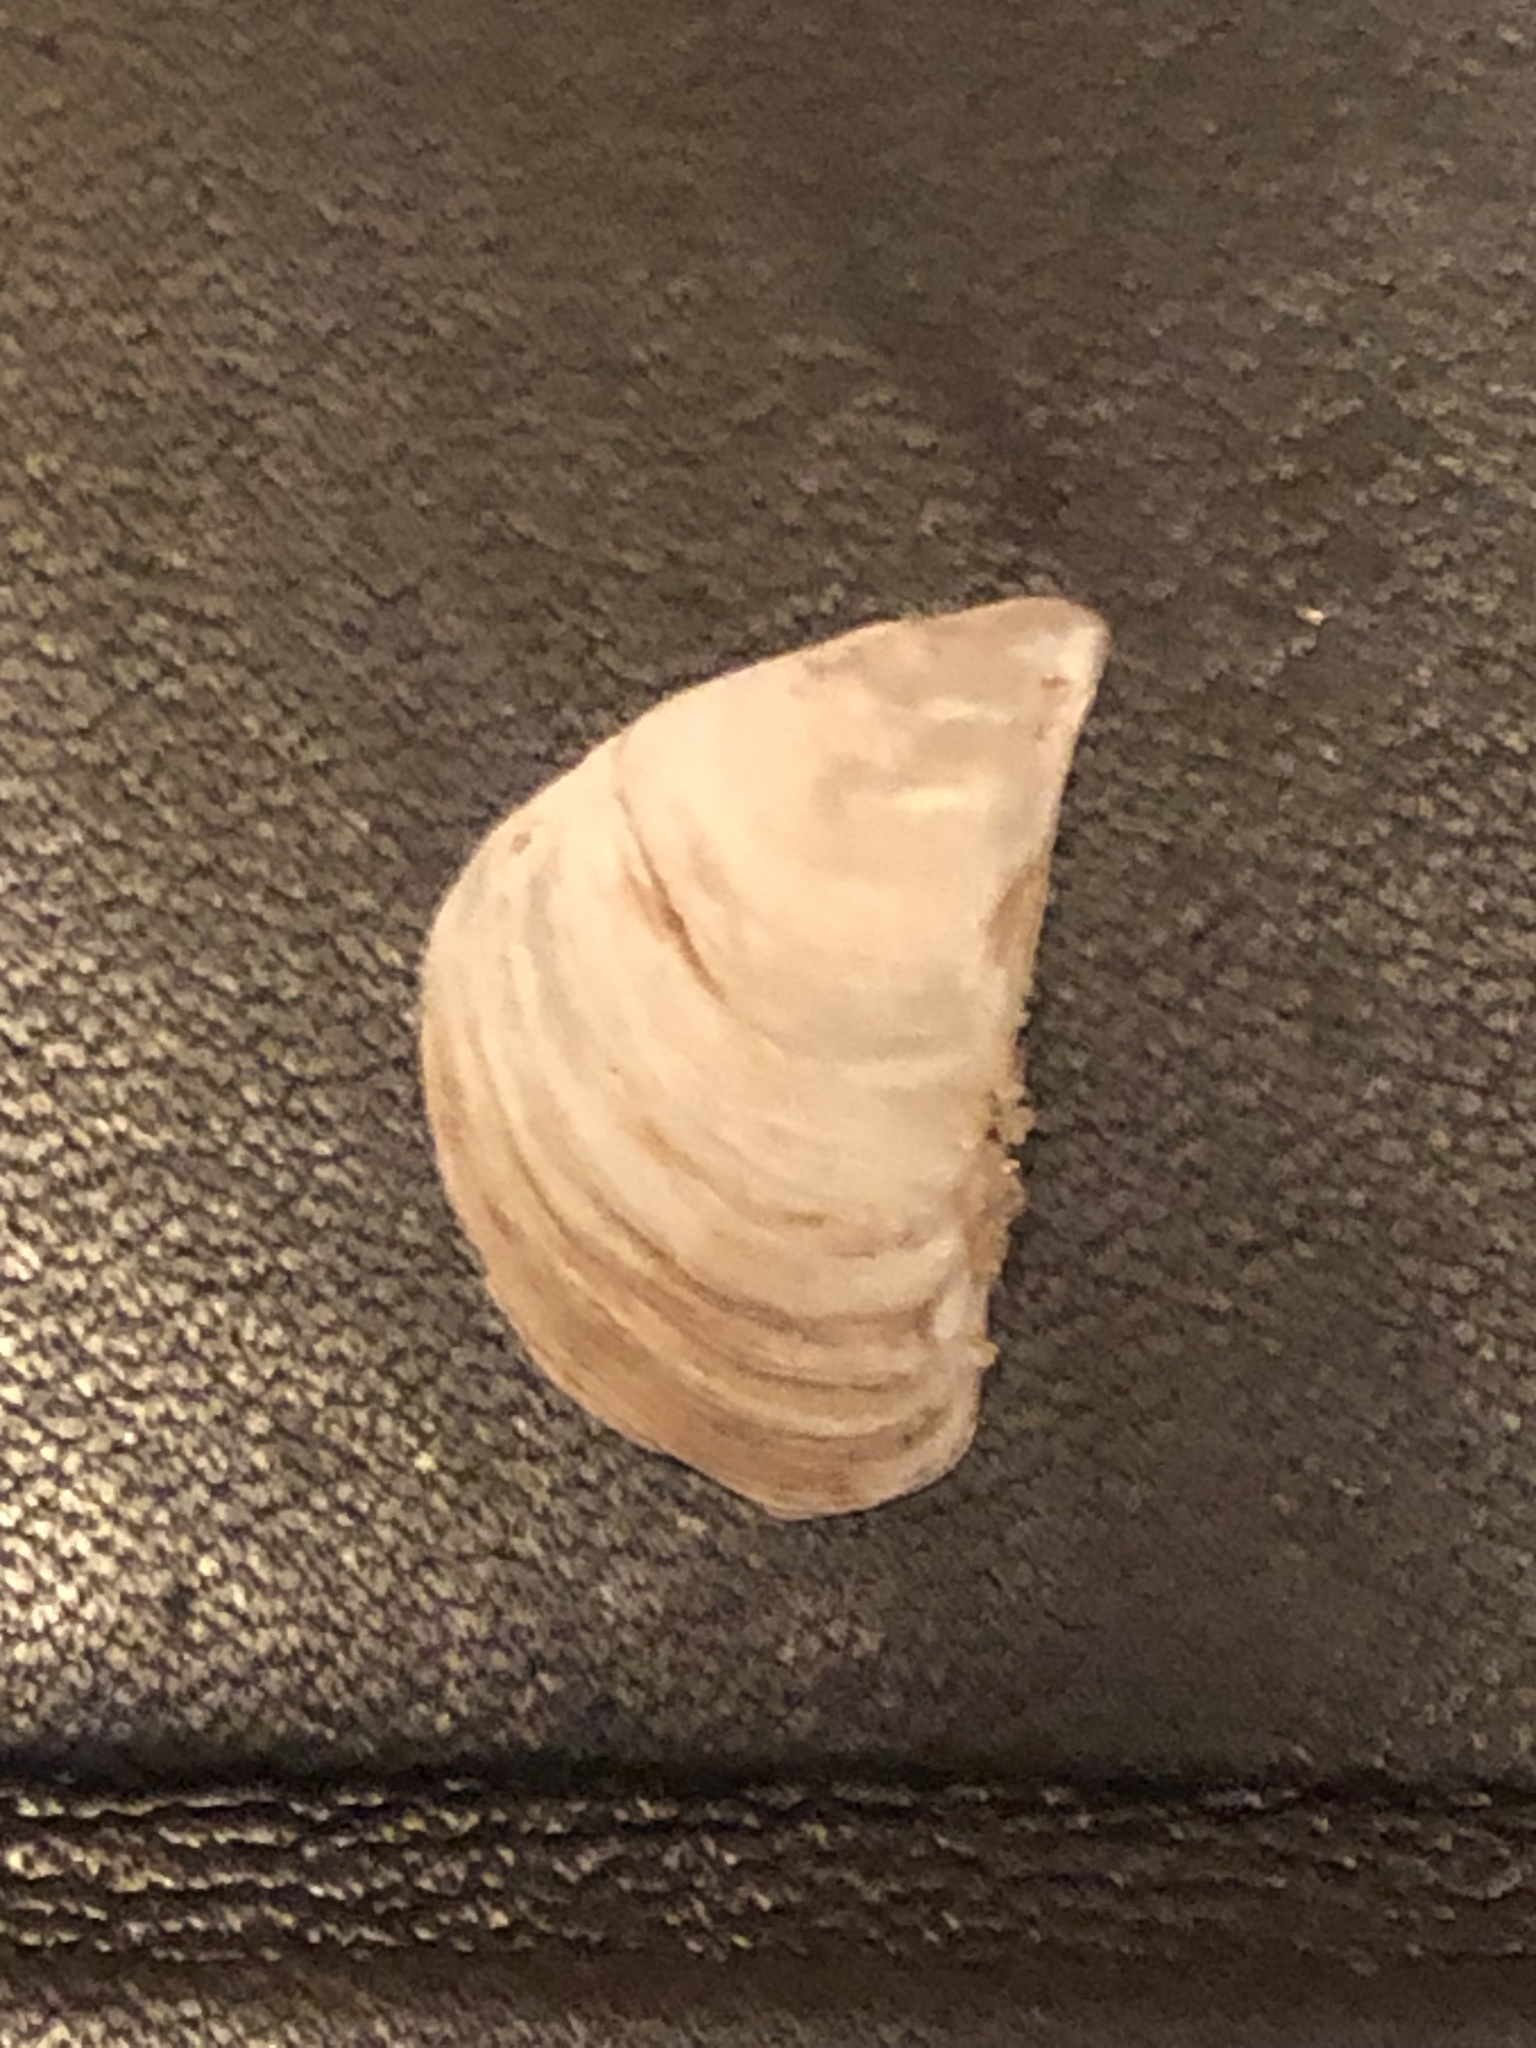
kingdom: Animalia
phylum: Mollusca
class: Bivalvia
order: Myida
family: Dreissenidae
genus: Dreissena
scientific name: Dreissena bugensis
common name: Quagga mussel
